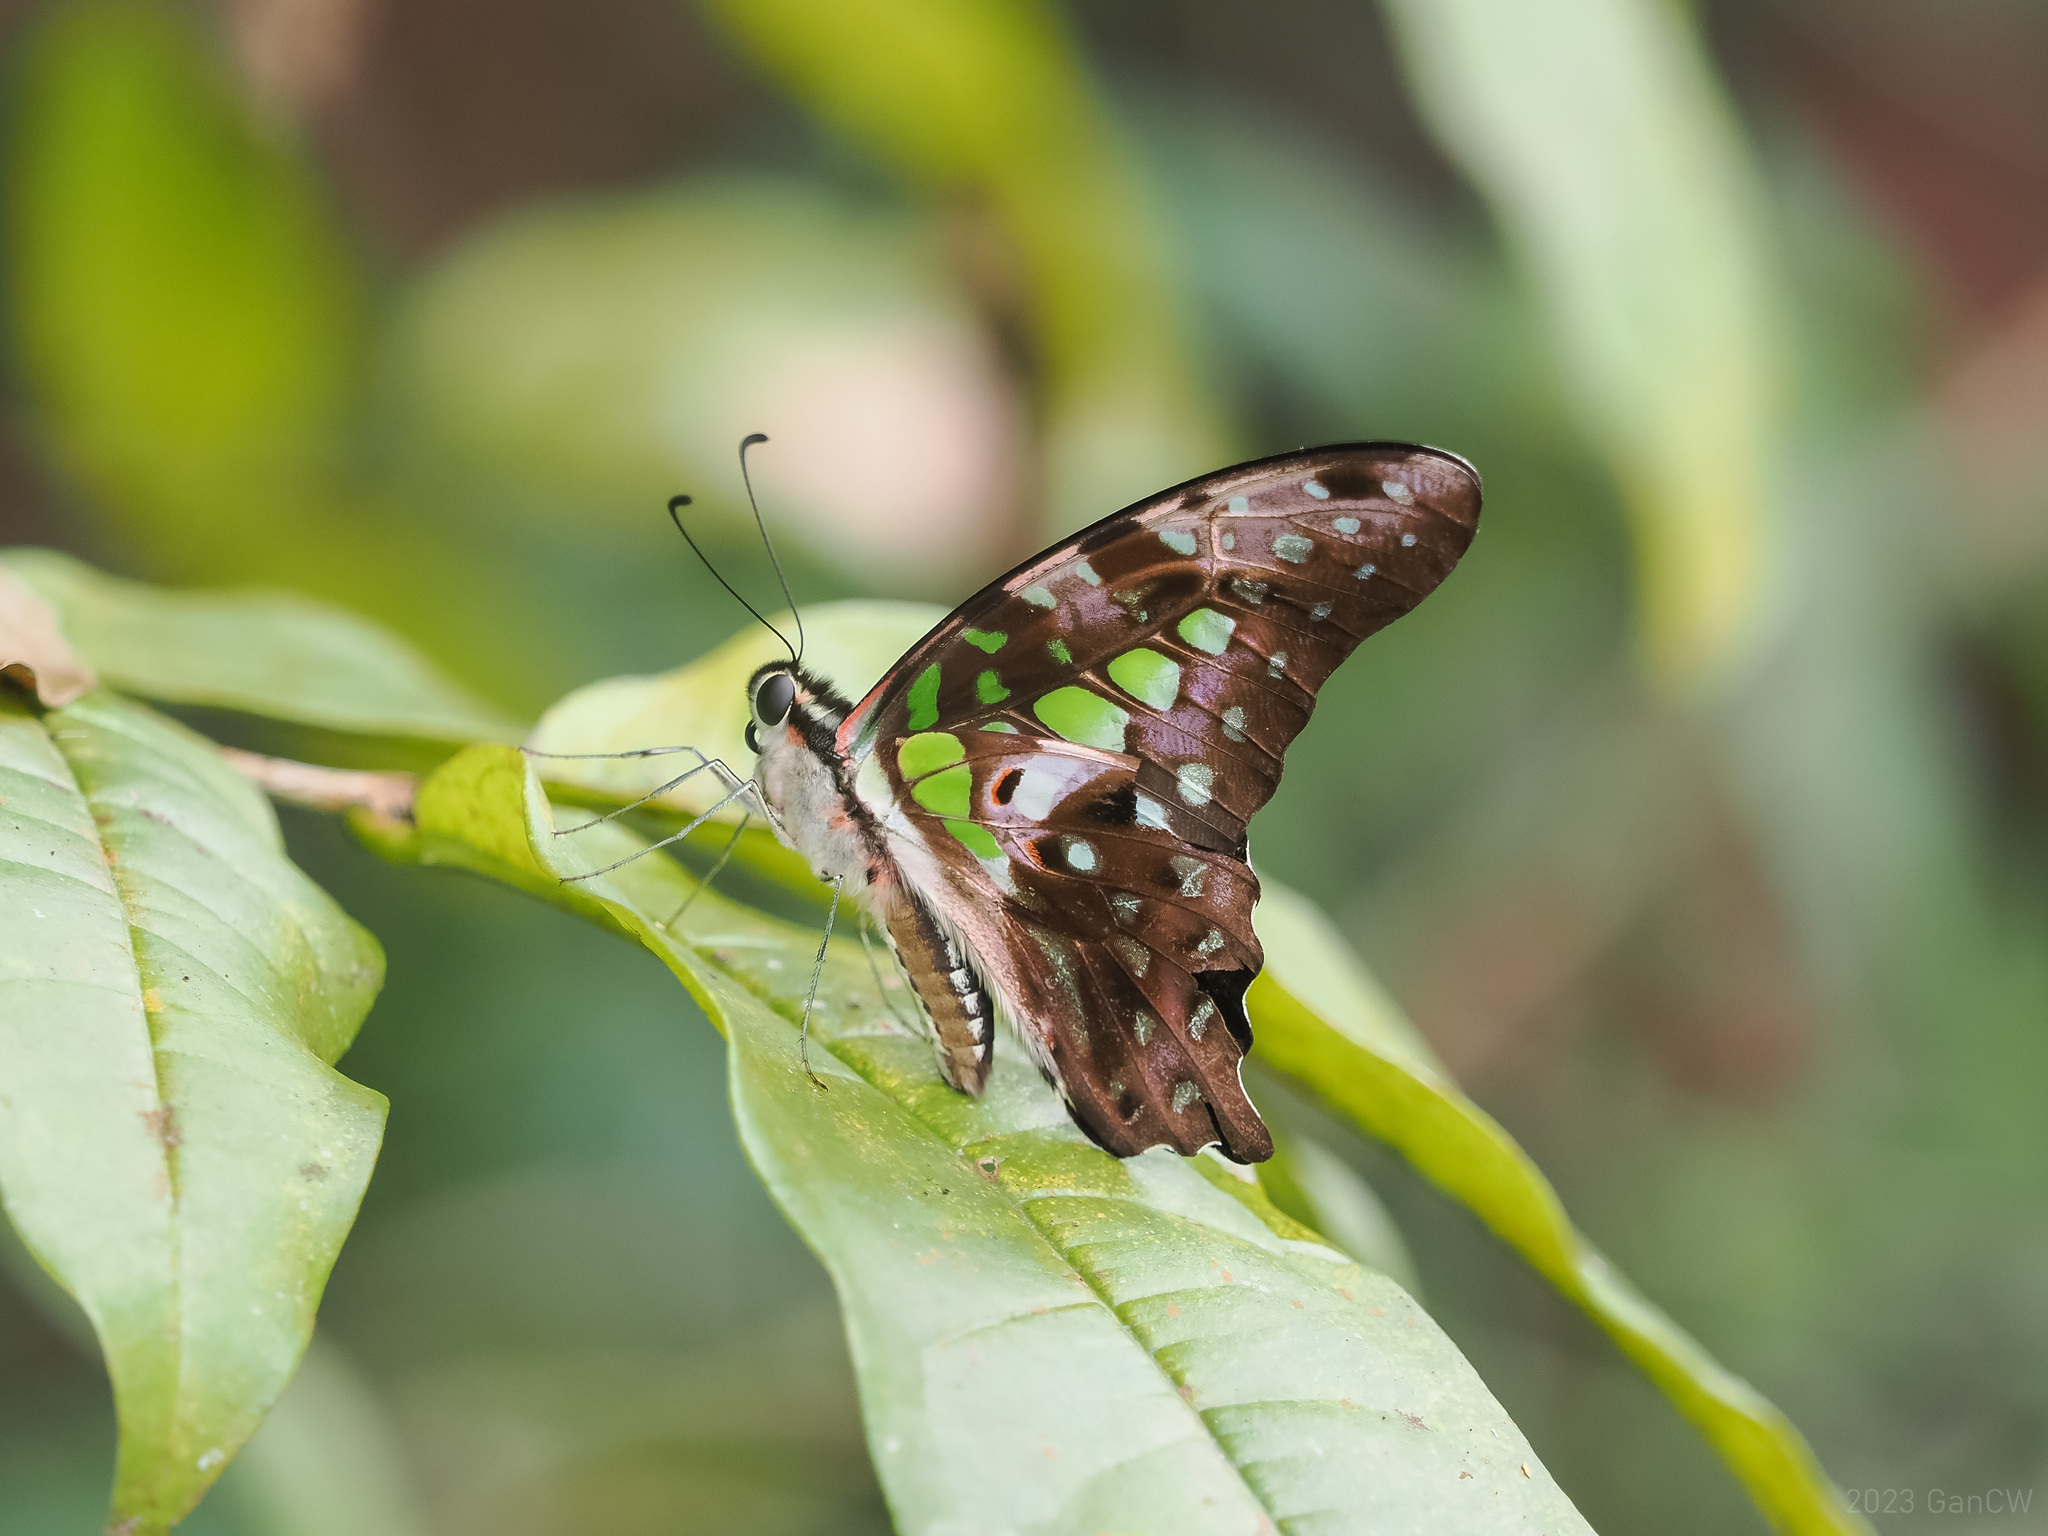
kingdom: Animalia
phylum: Arthropoda
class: Insecta
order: Lepidoptera
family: Papilionidae
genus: Graphium
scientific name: Graphium agamemnon
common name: Tailed jay
